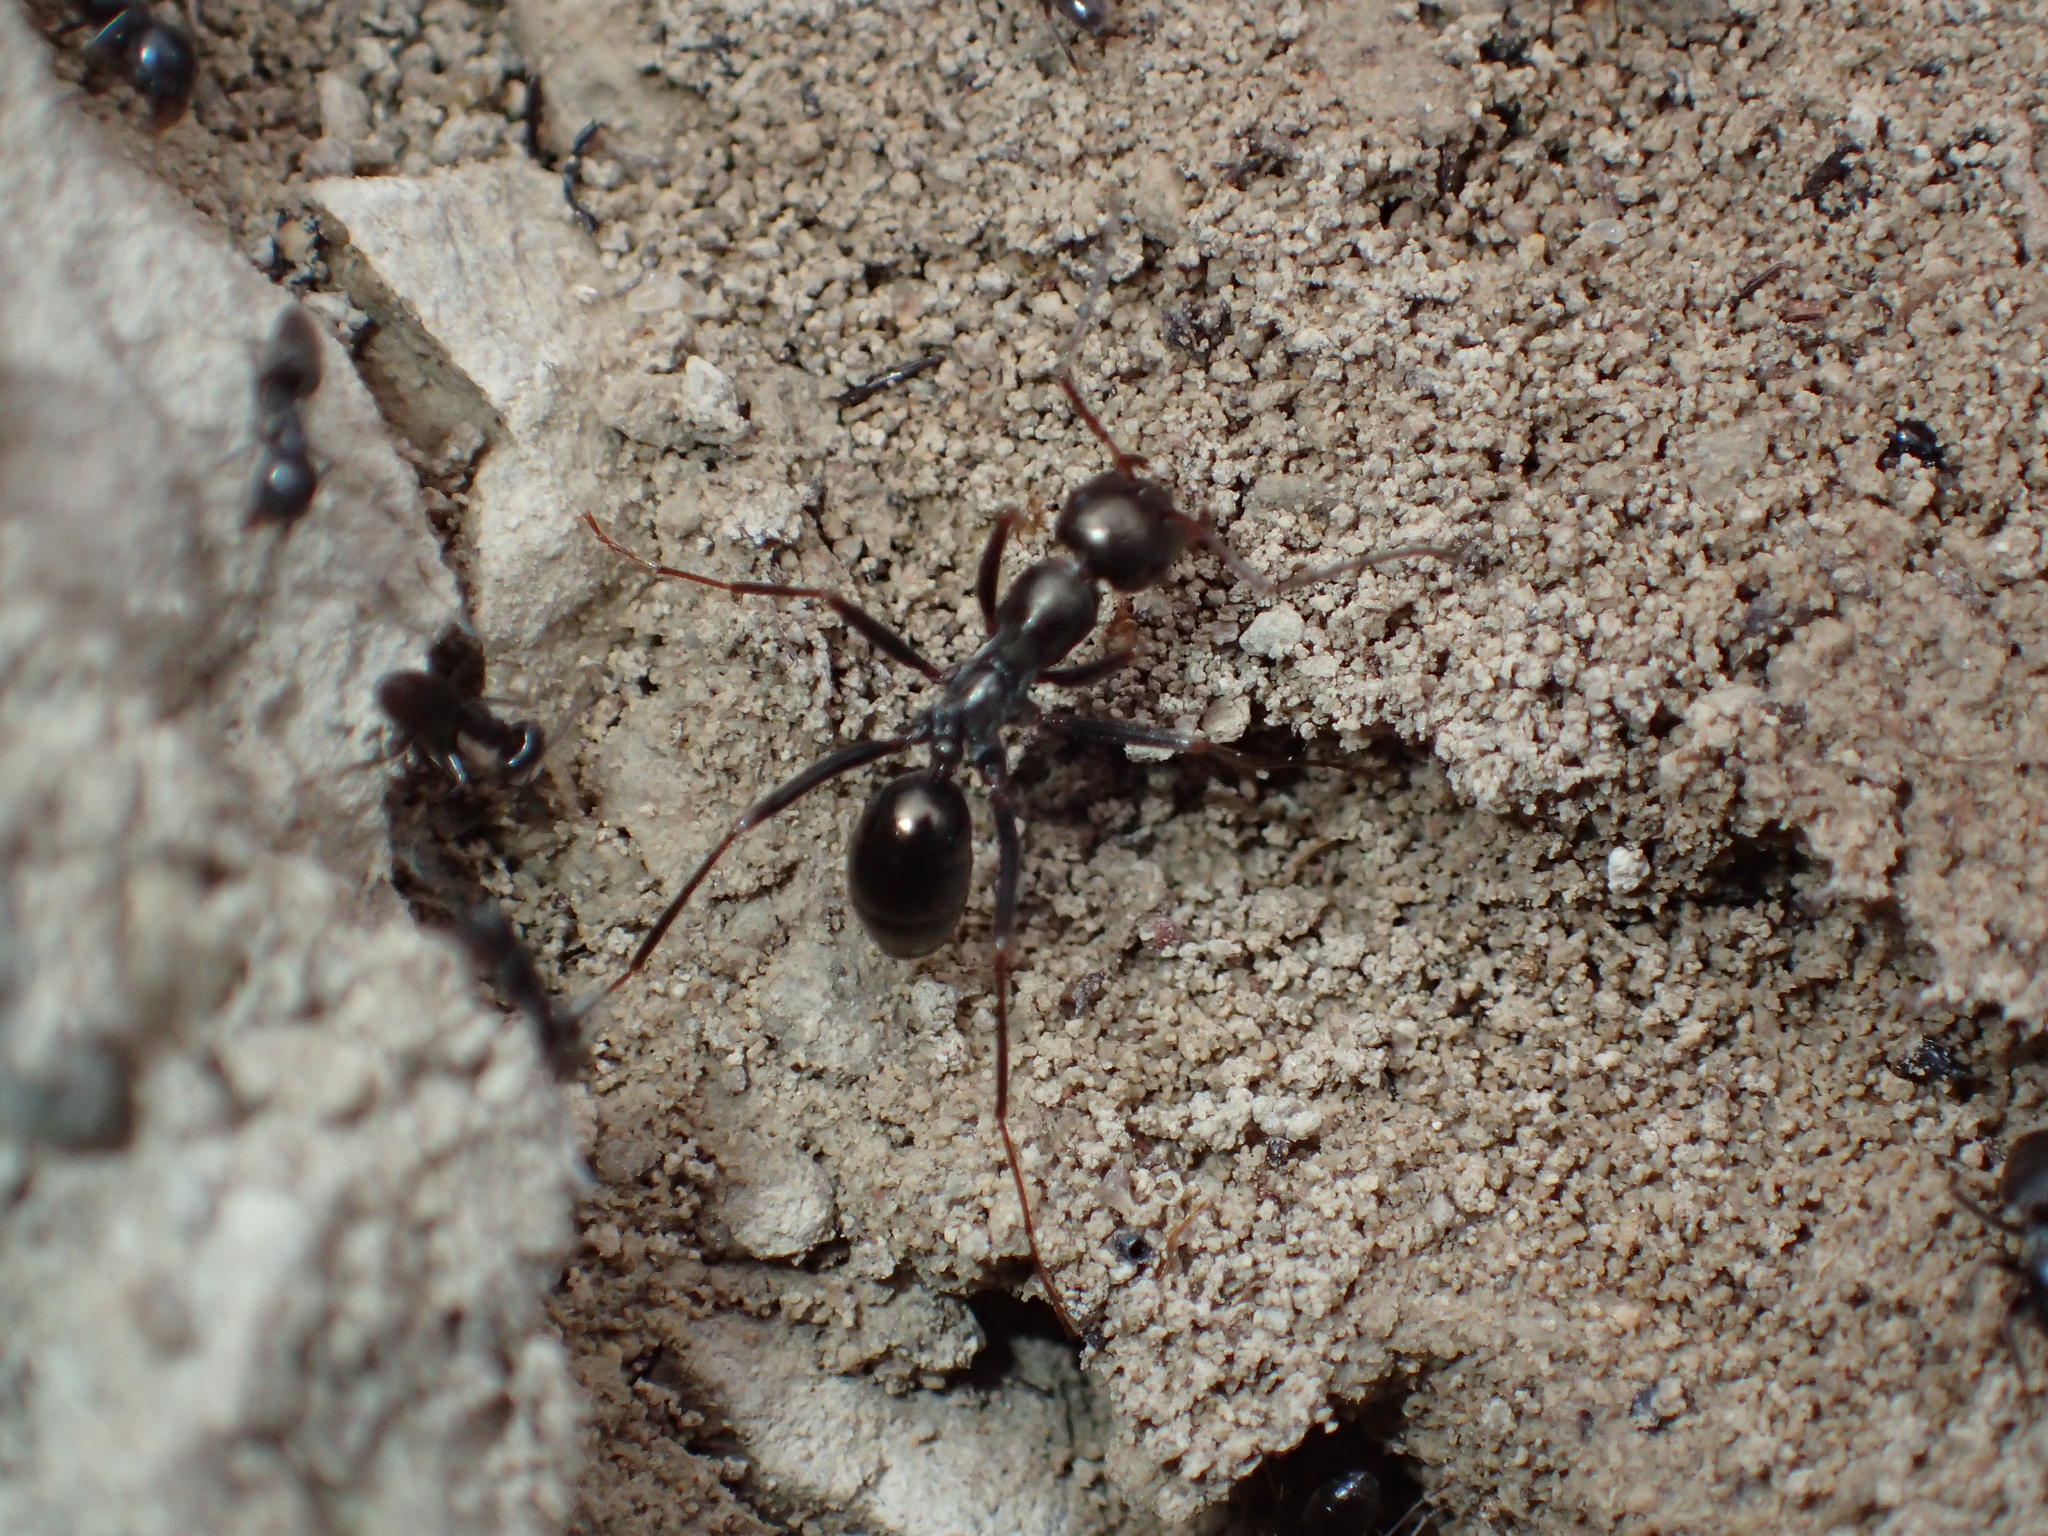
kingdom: Animalia
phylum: Arthropoda
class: Insecta
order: Hymenoptera
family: Formicidae
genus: Cataglyphis
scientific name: Cataglyphis piliscapus
